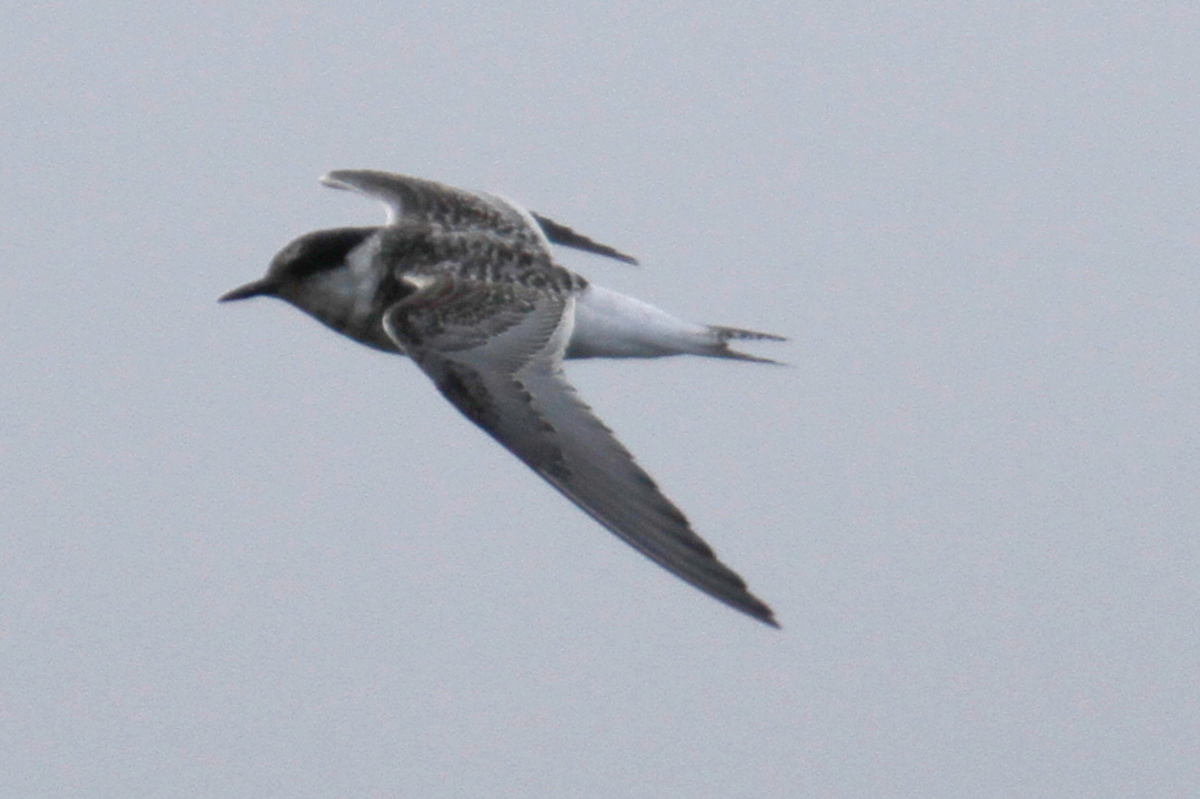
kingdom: Animalia
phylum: Chordata
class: Aves
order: Charadriiformes
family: Laridae
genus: Sterna
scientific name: Sterna vittata
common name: Antarctic tern
